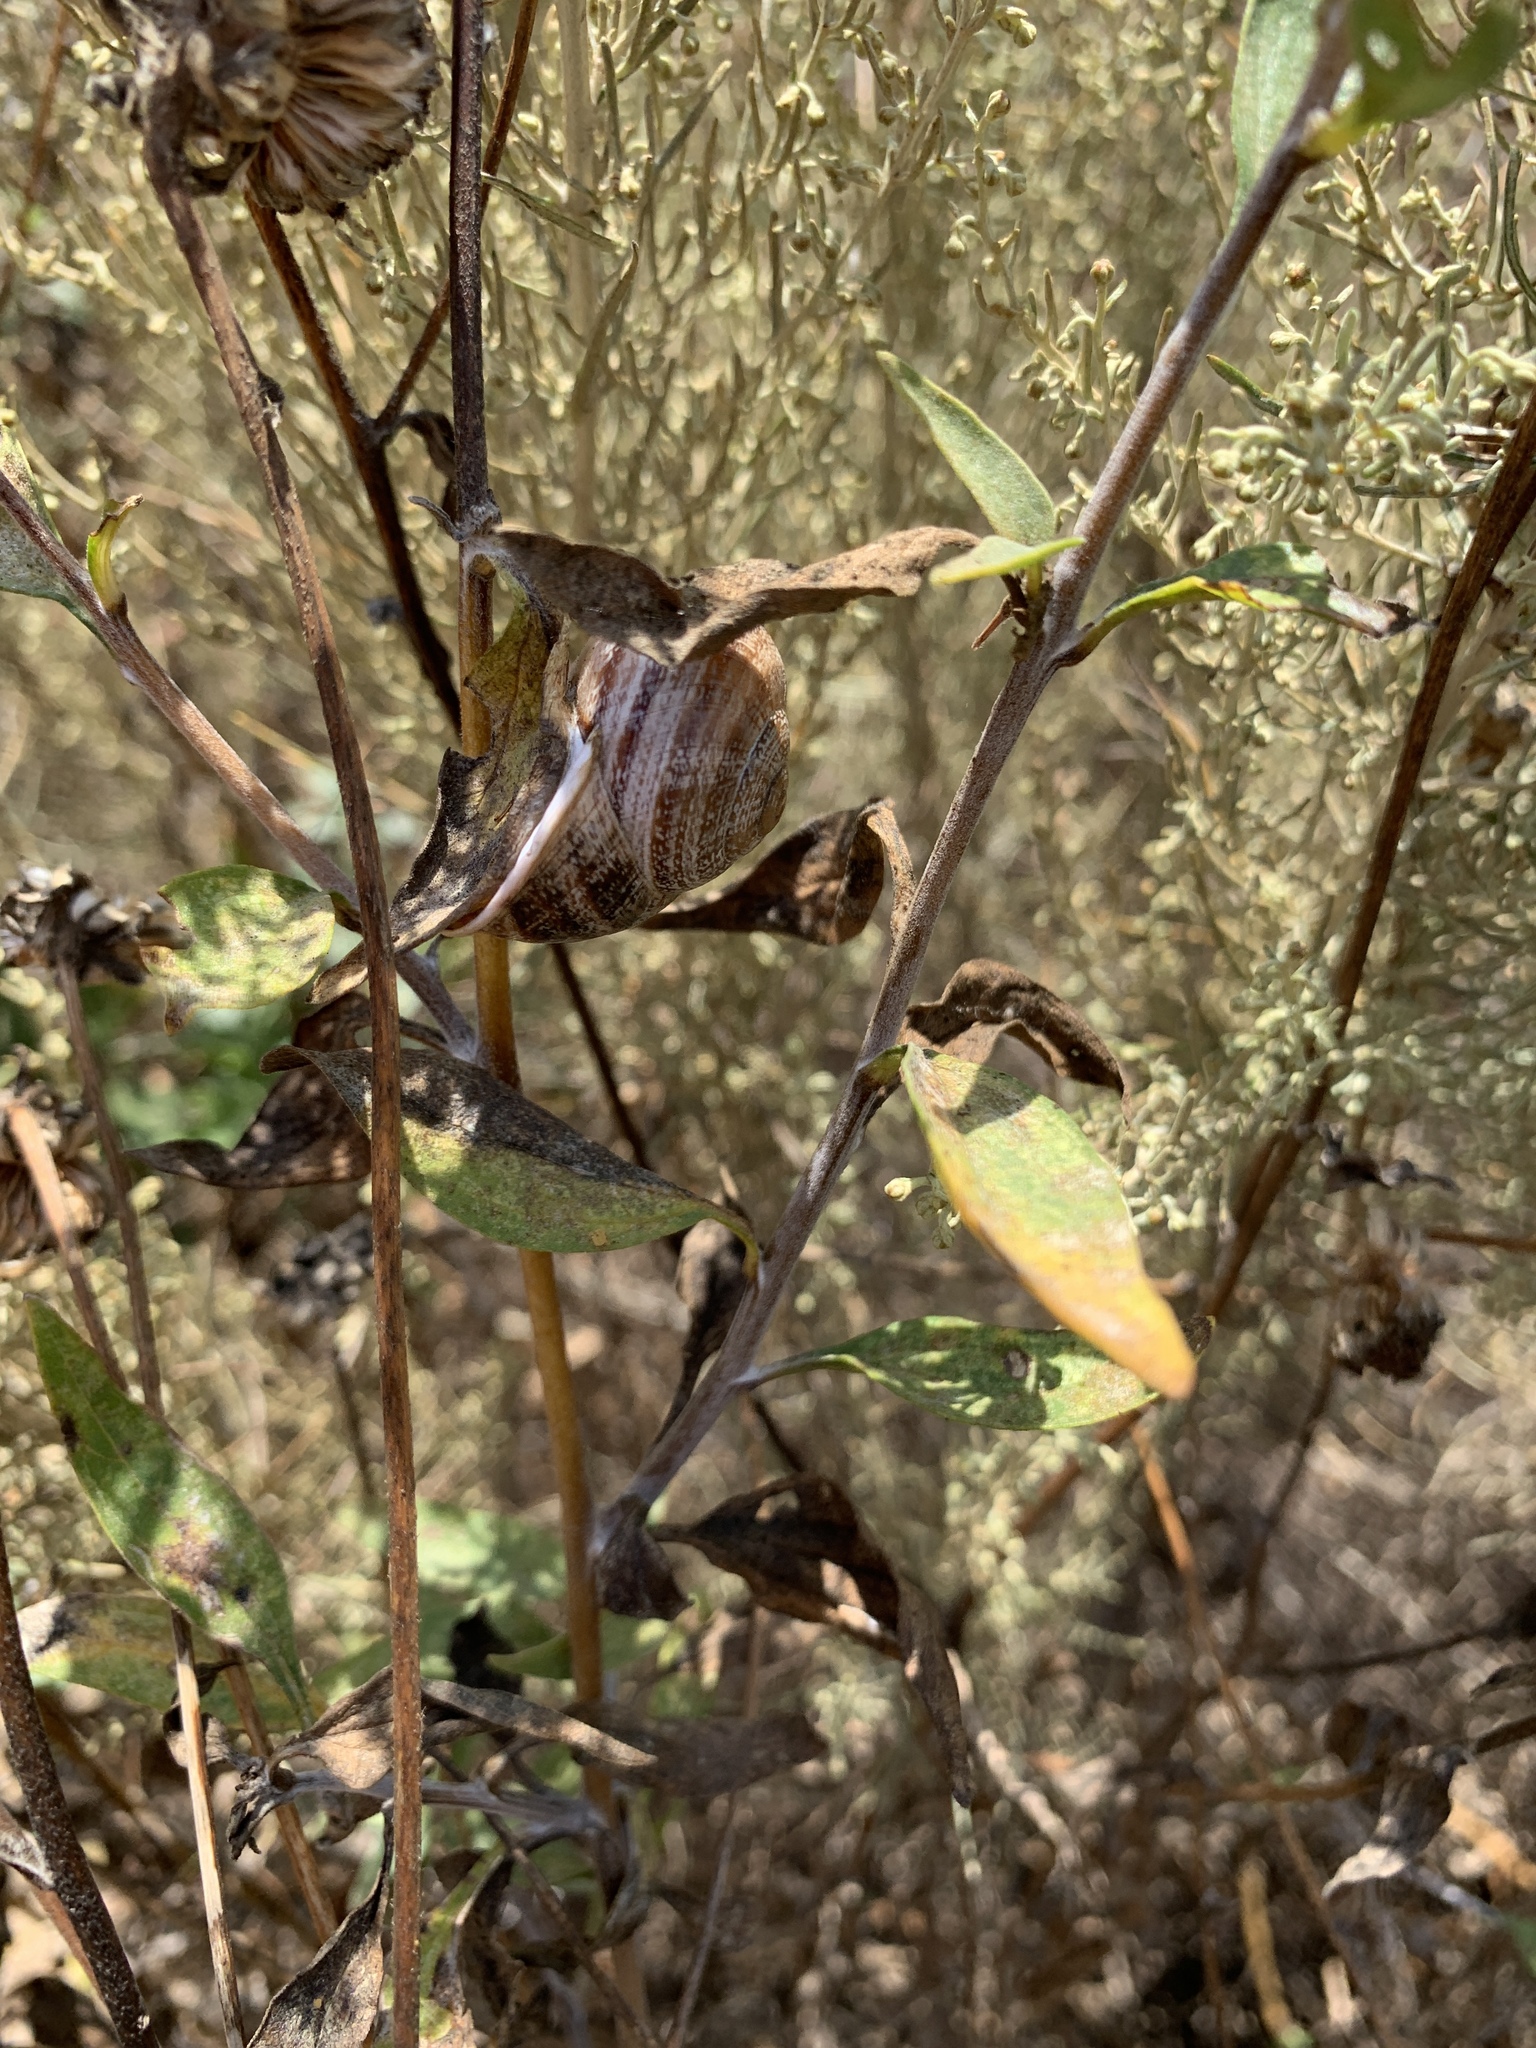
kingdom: Animalia
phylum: Mollusca
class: Gastropoda
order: Stylommatophora
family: Helicidae
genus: Otala
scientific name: Otala lactea
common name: Milk snail
